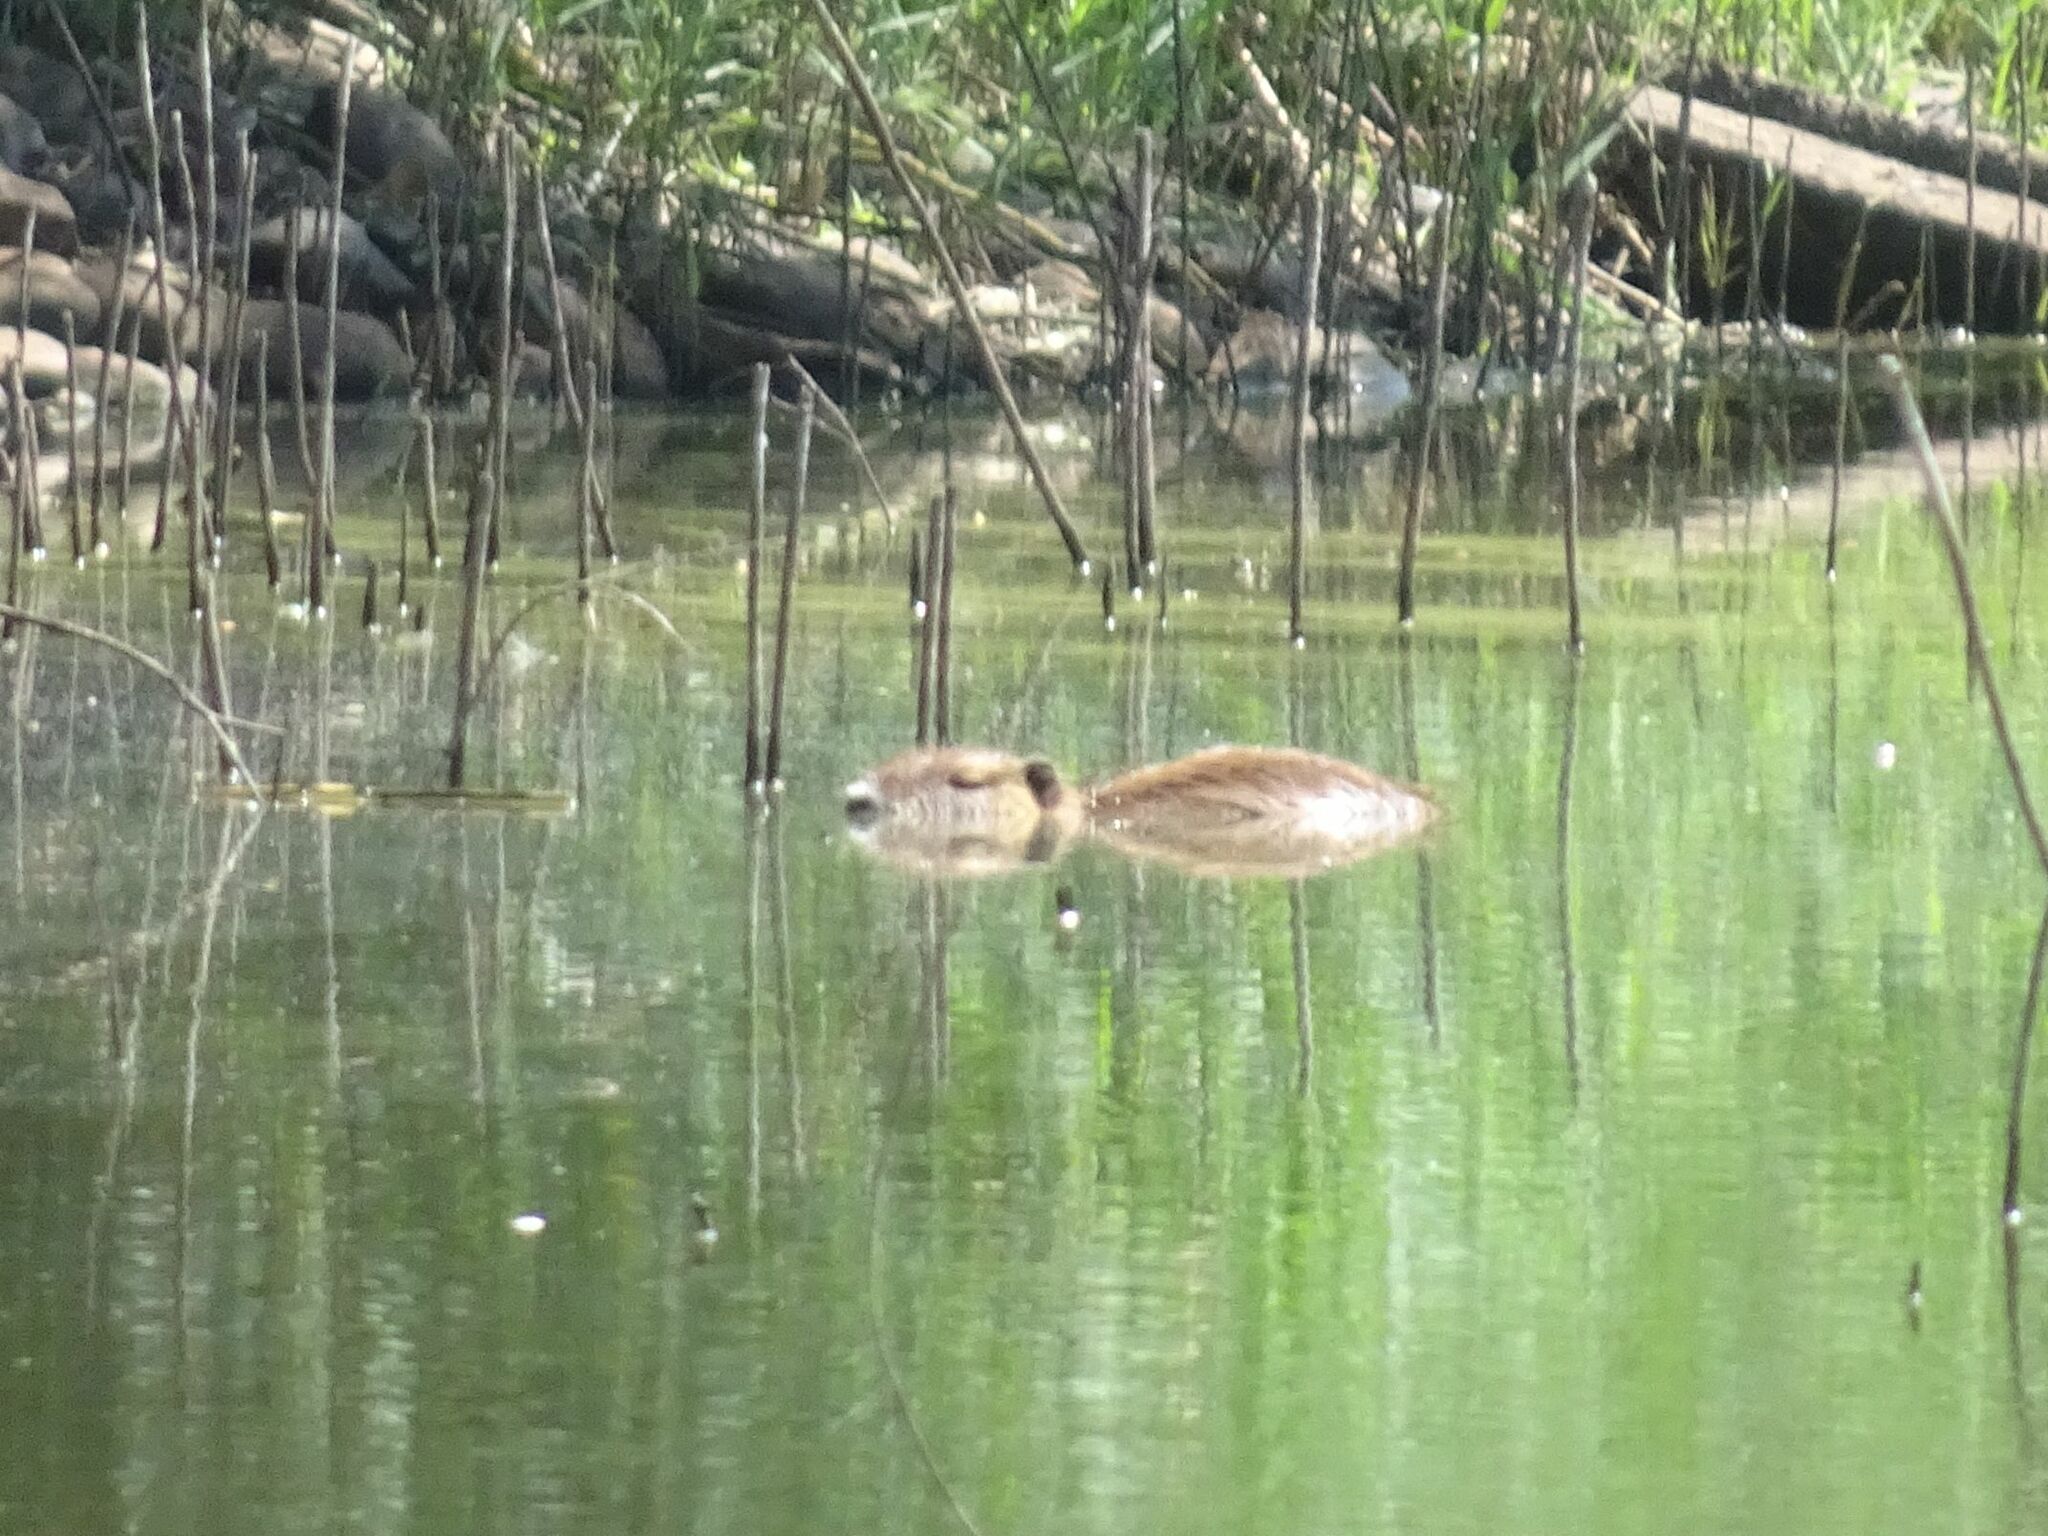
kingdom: Animalia
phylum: Chordata
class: Mammalia
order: Rodentia
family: Myocastoridae
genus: Myocastor
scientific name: Myocastor coypus
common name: Coypu
